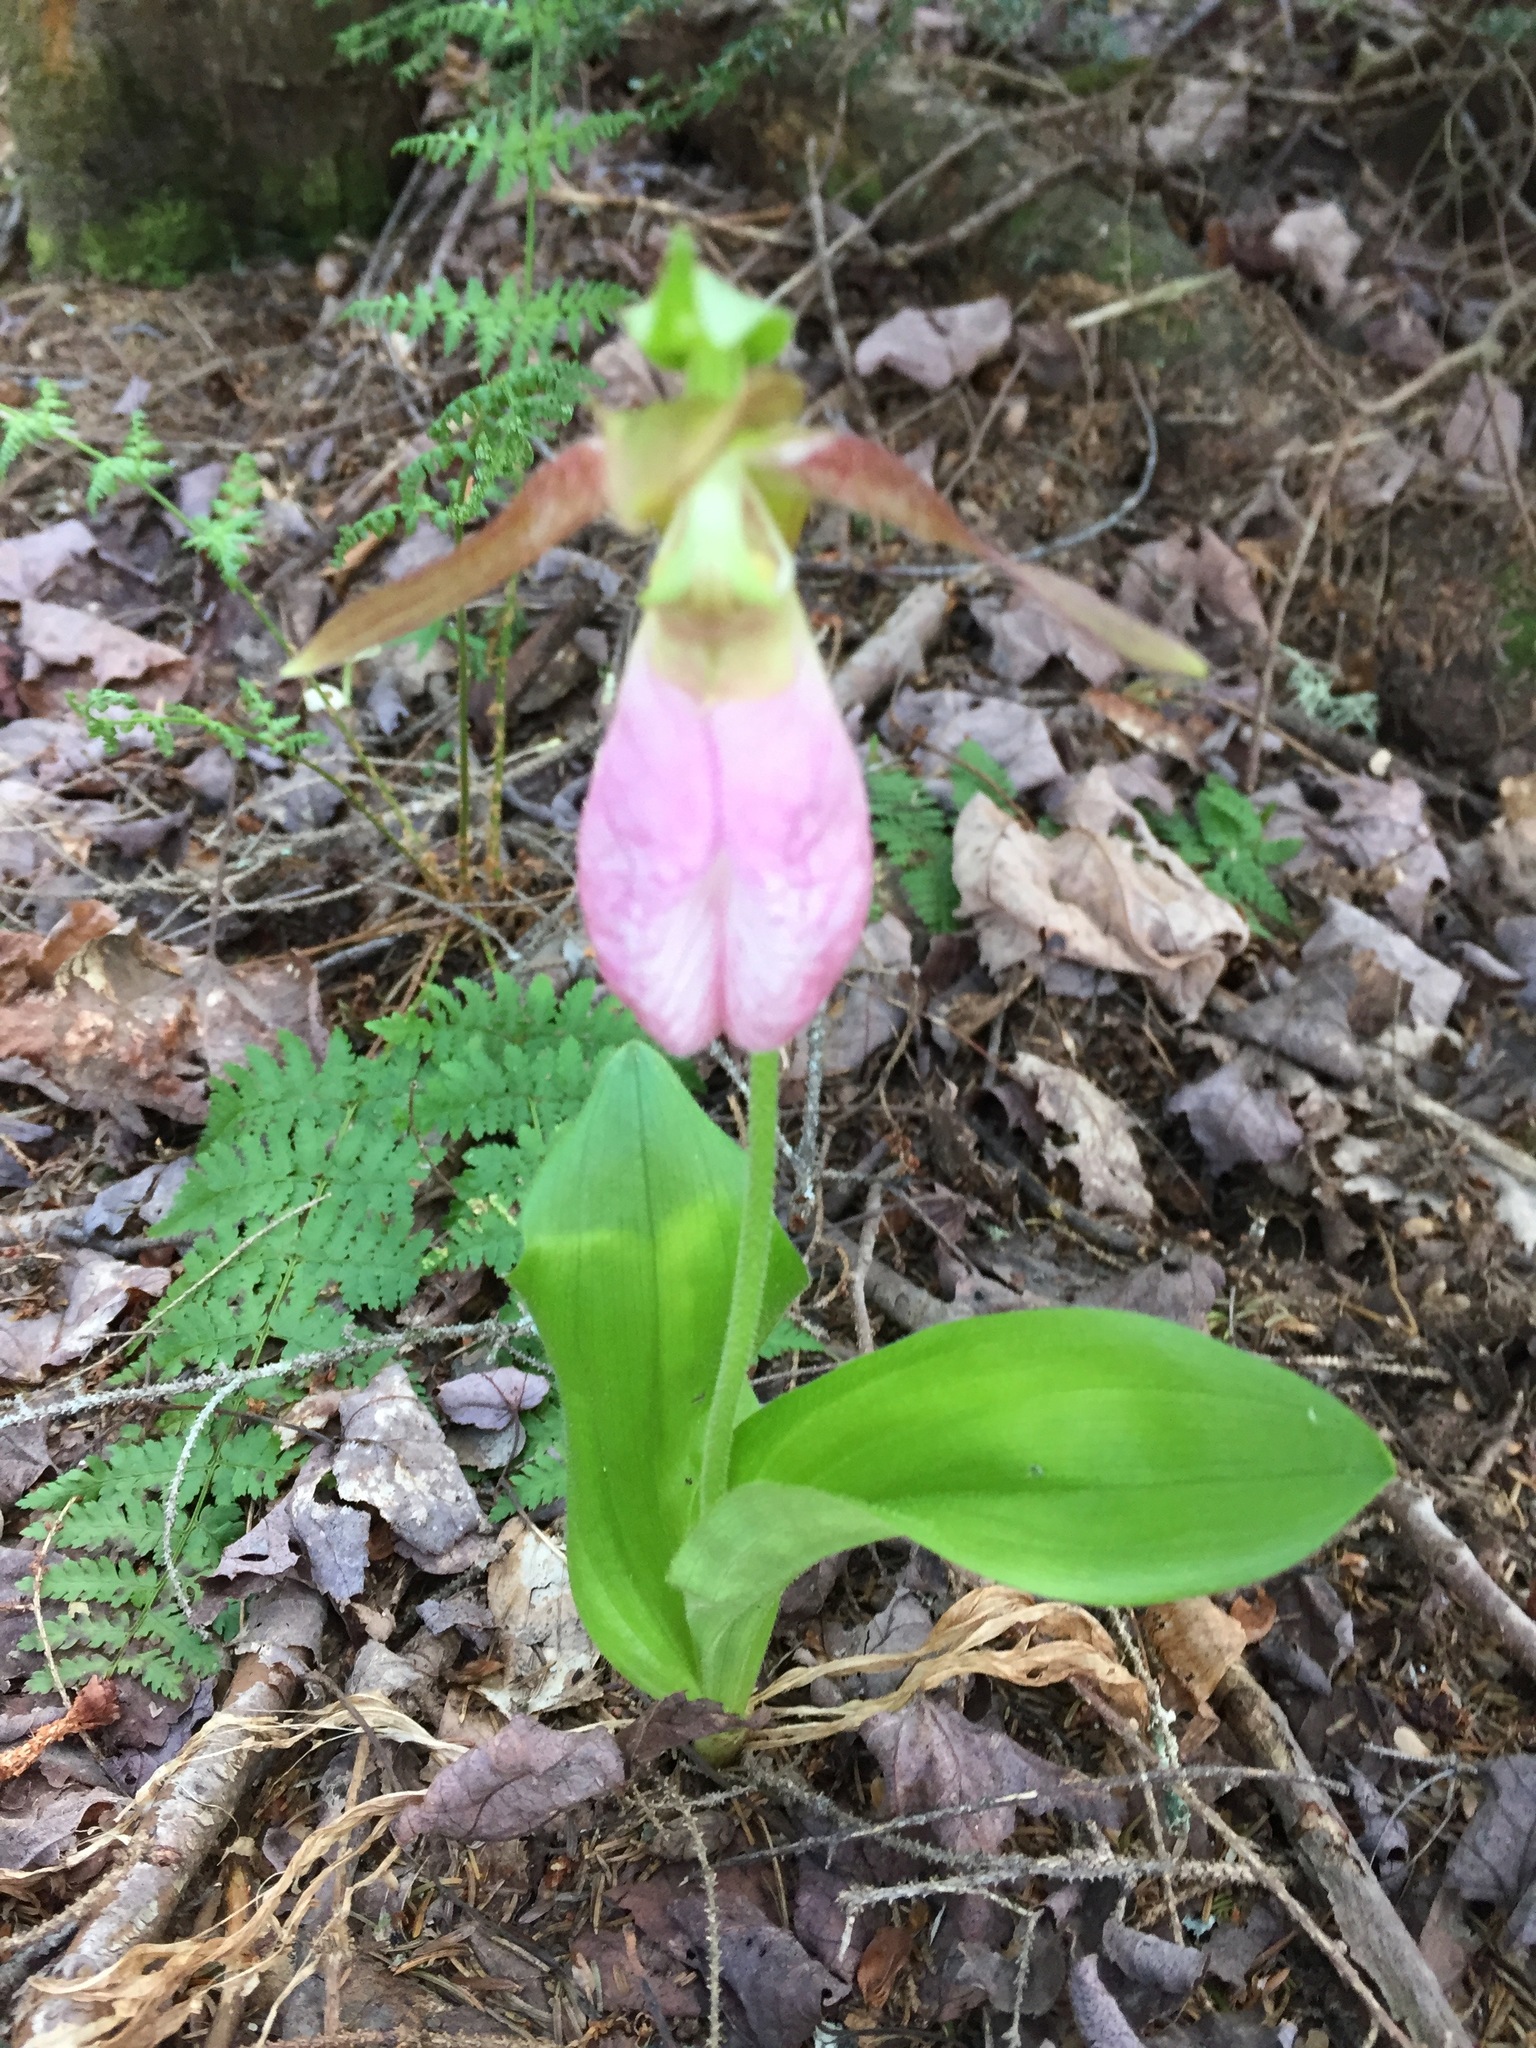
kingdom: Plantae
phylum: Tracheophyta
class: Liliopsida
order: Asparagales
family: Orchidaceae
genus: Cypripedium
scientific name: Cypripedium acaule
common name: Pink lady's-slipper
